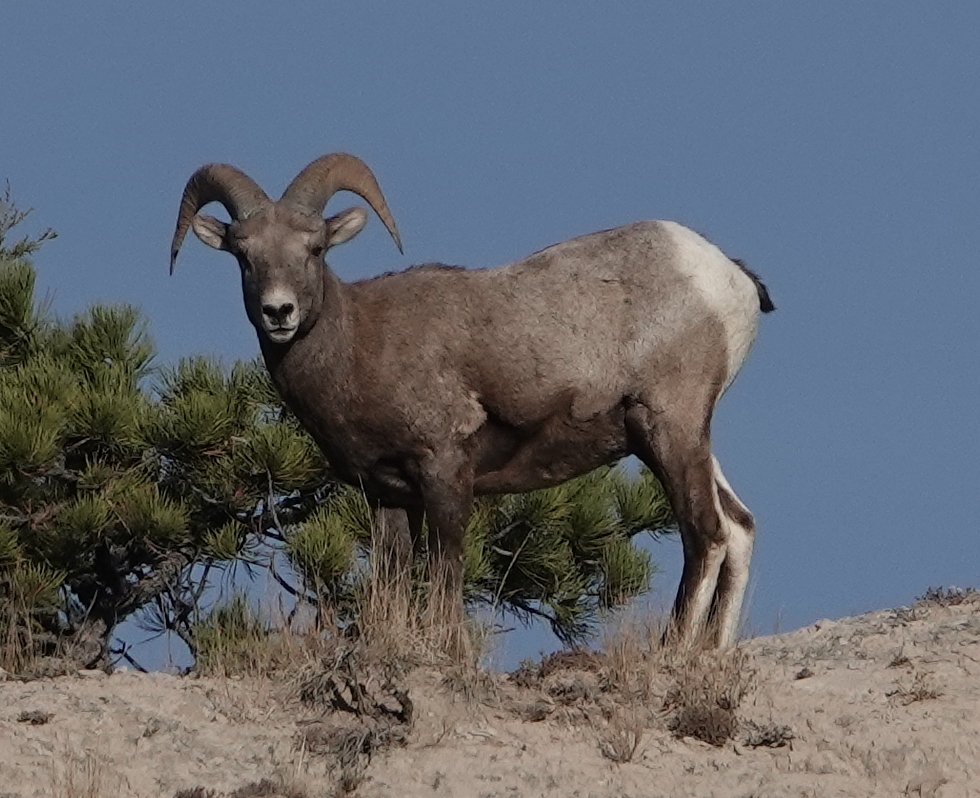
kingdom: Animalia
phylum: Chordata
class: Mammalia
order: Artiodactyla
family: Bovidae
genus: Ovis
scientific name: Ovis canadensis
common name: Bighorn sheep
